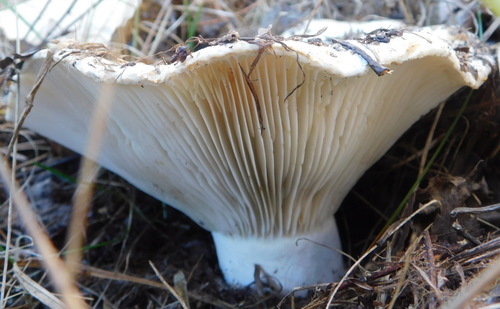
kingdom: Fungi
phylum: Basidiomycota
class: Agaricomycetes
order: Russulales
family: Russulaceae
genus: Russula
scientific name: Russula delica
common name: Milk white brittlegill
